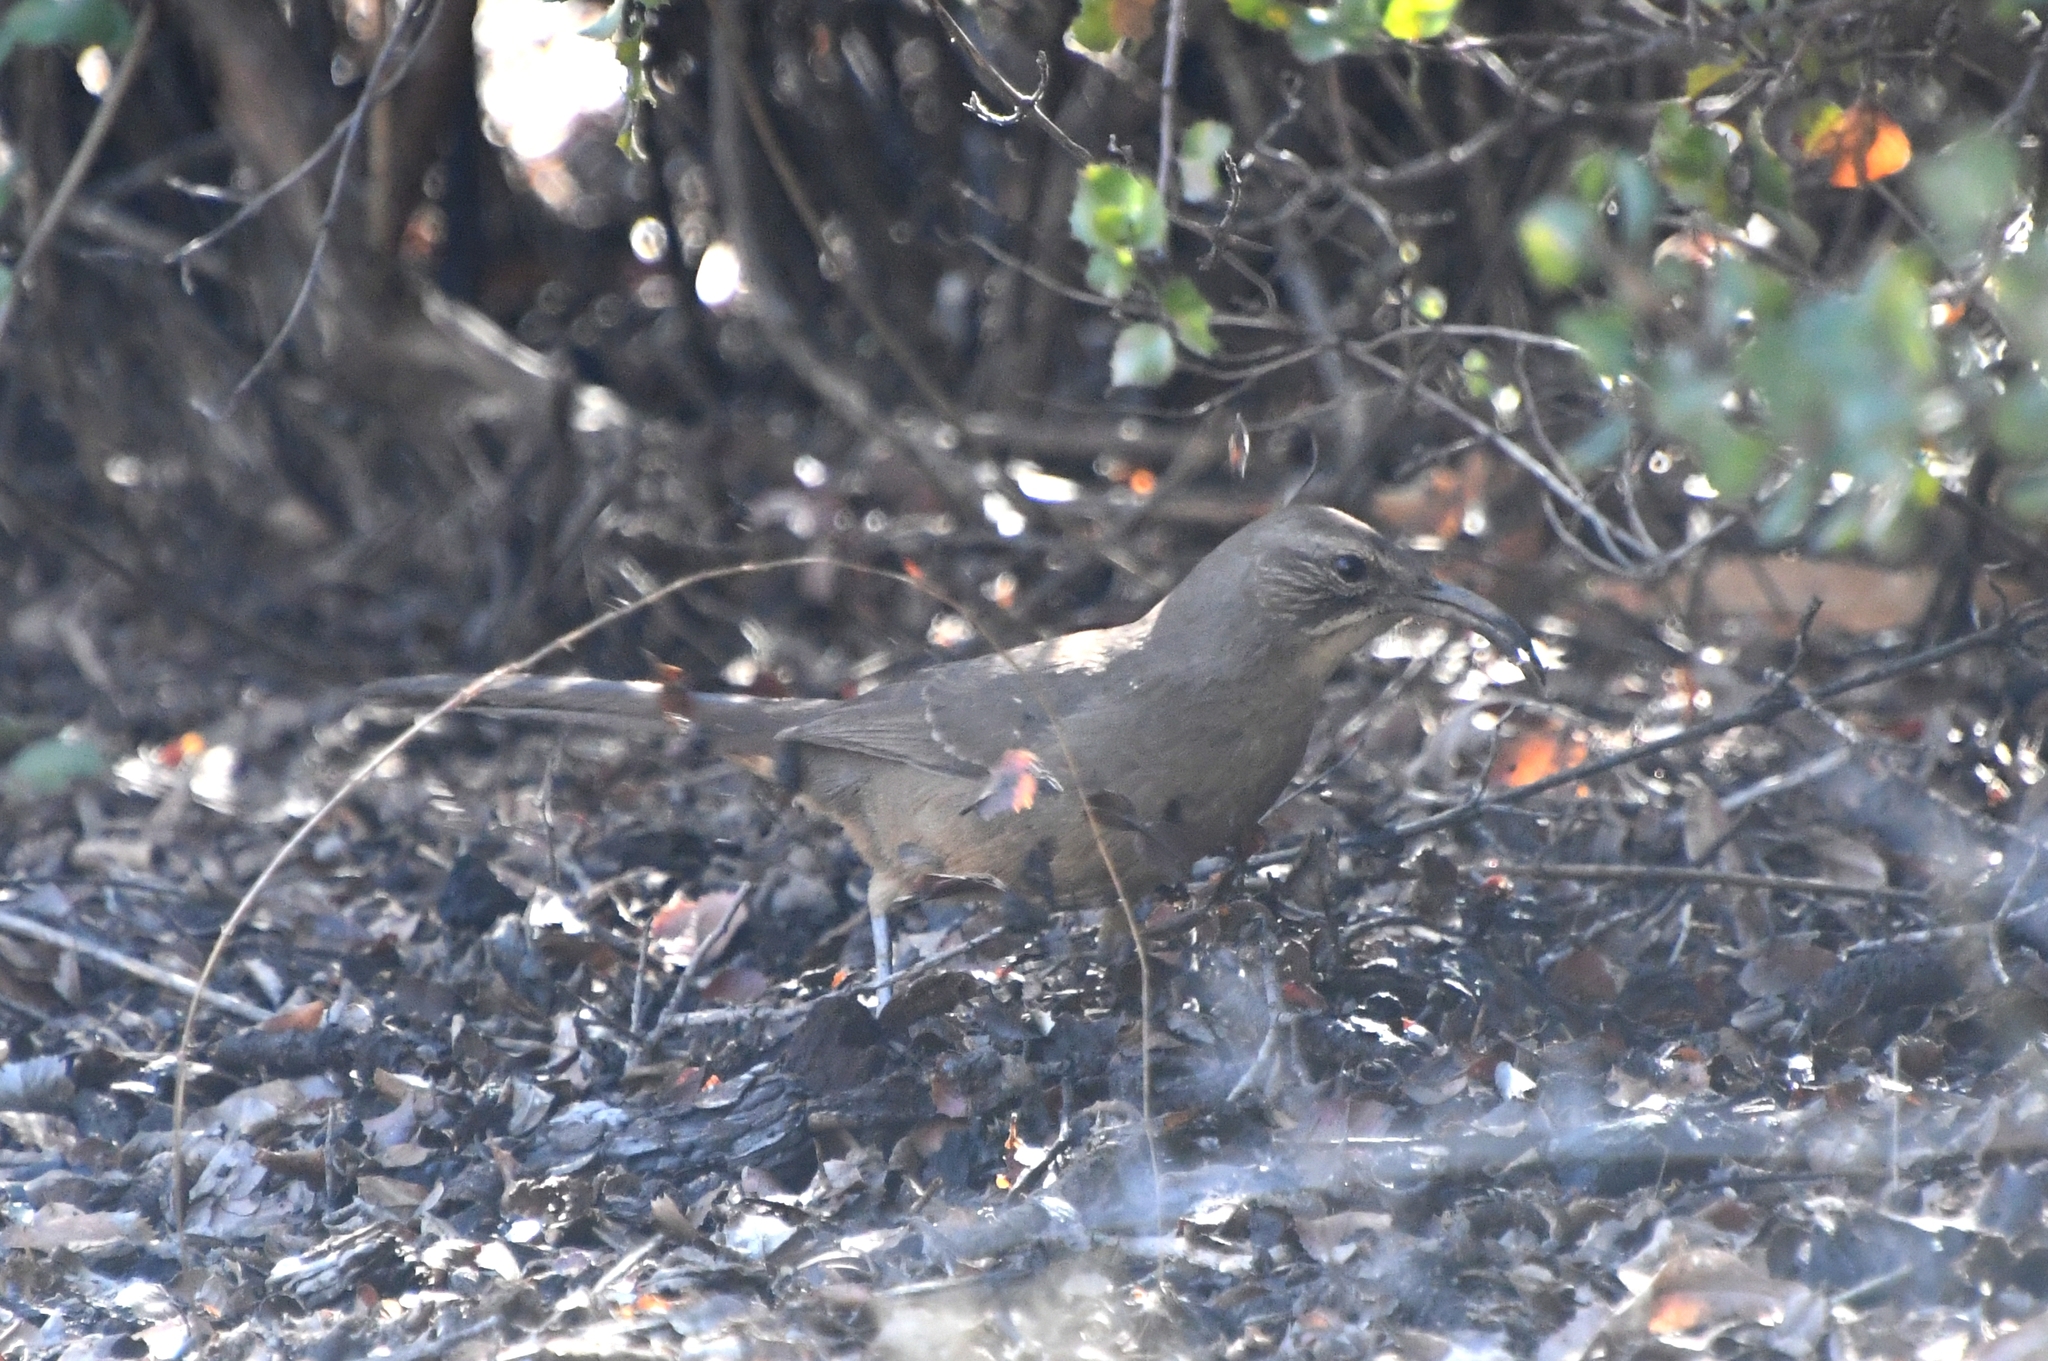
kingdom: Animalia
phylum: Chordata
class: Aves
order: Passeriformes
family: Mimidae
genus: Toxostoma
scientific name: Toxostoma redivivum
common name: California thrasher
